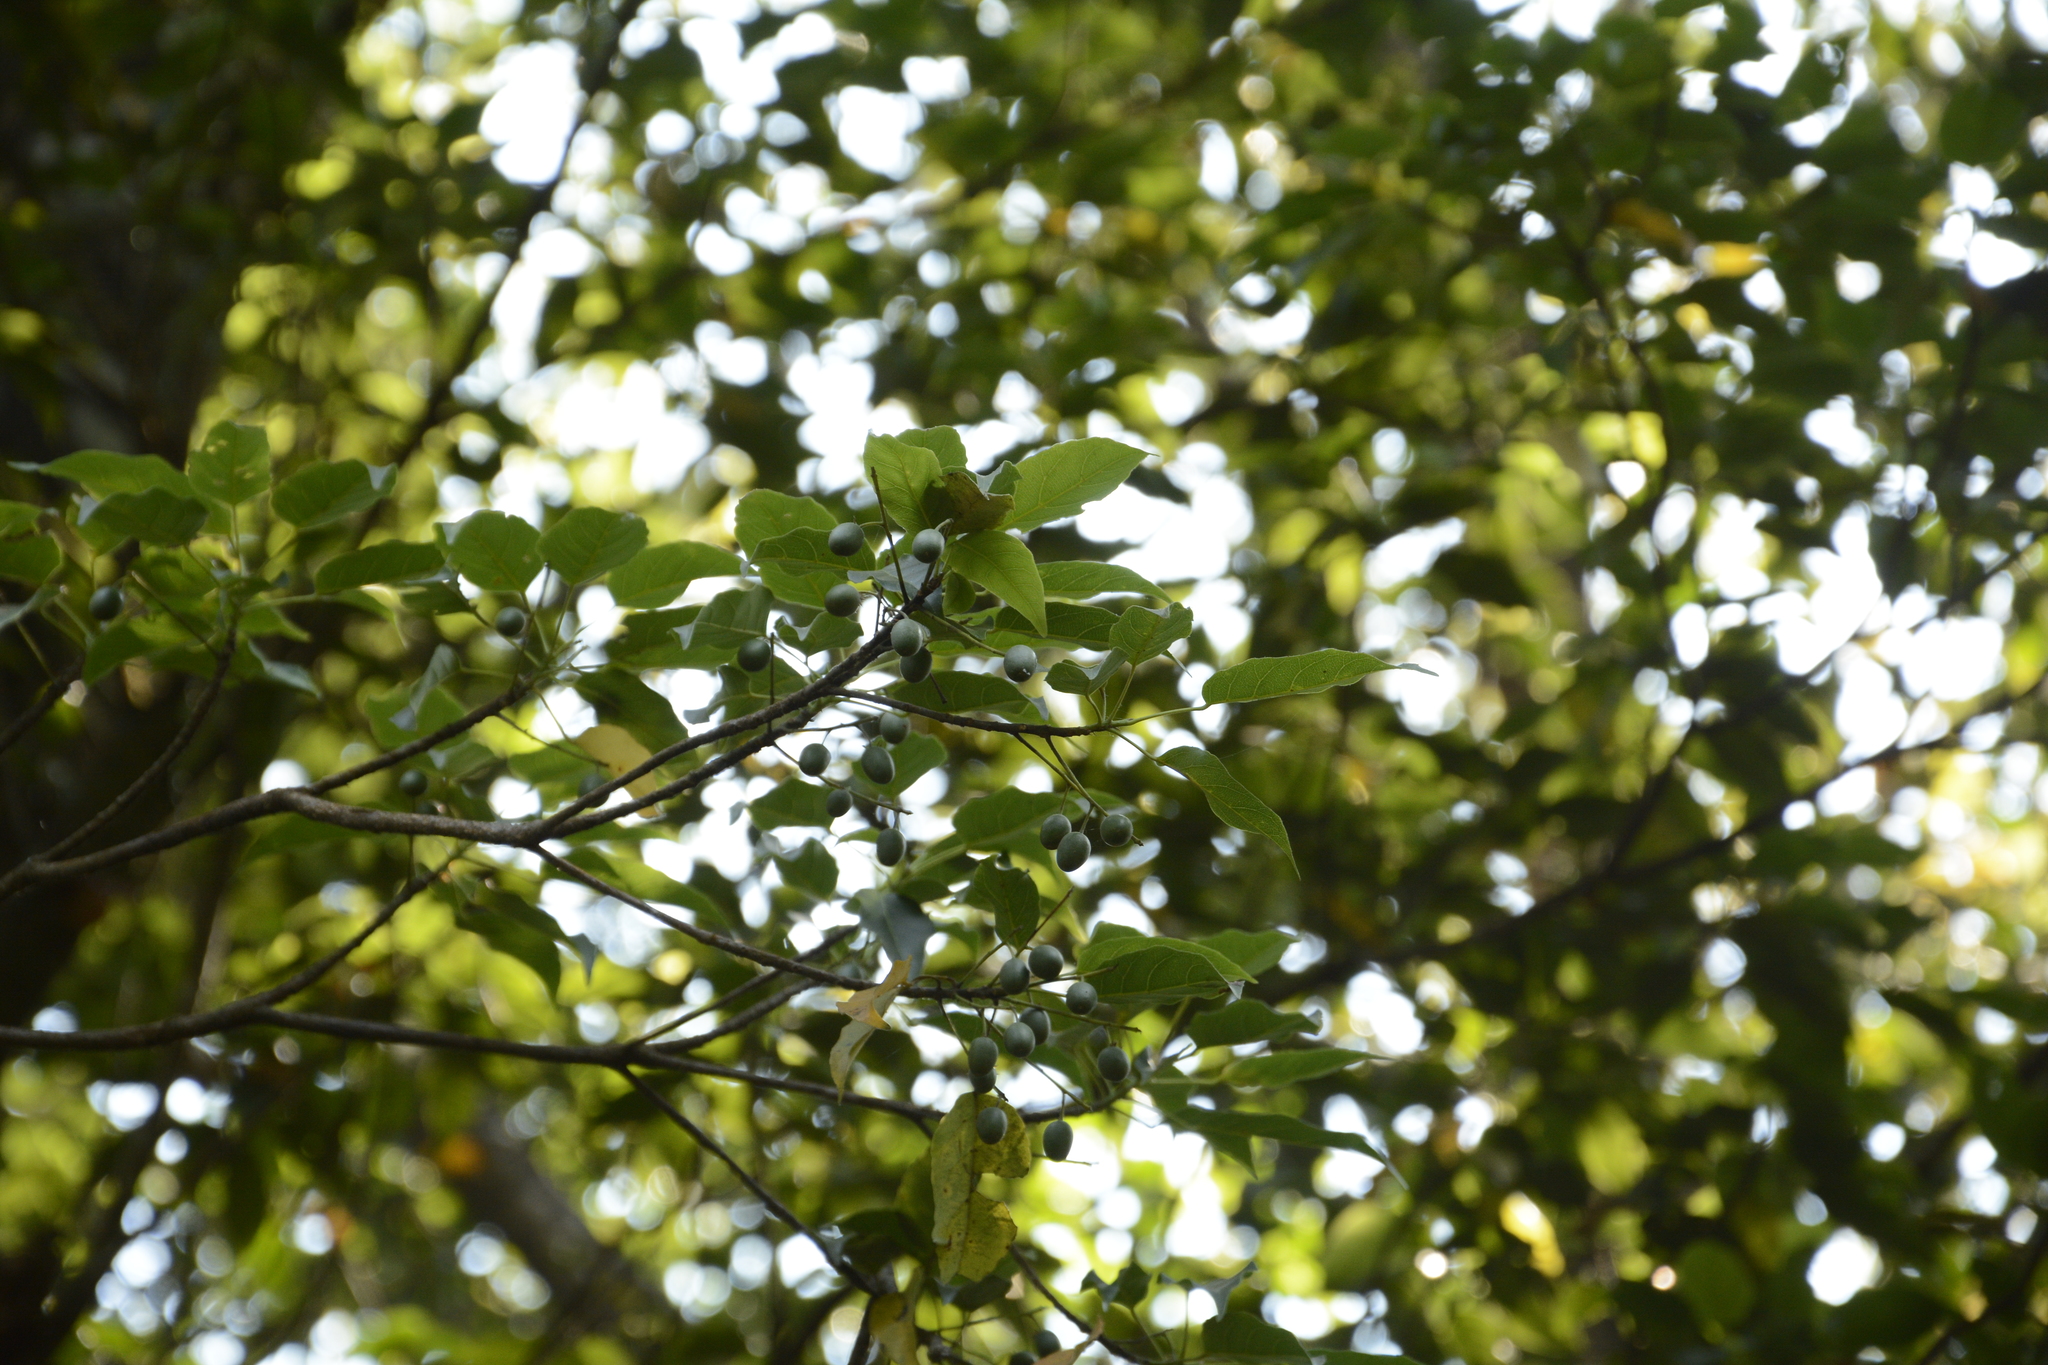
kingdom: Plantae
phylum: Tracheophyta
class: Magnoliopsida
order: Oxalidales
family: Elaeocarpaceae
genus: Elaeocarpus
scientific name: Elaeocarpus munroii
